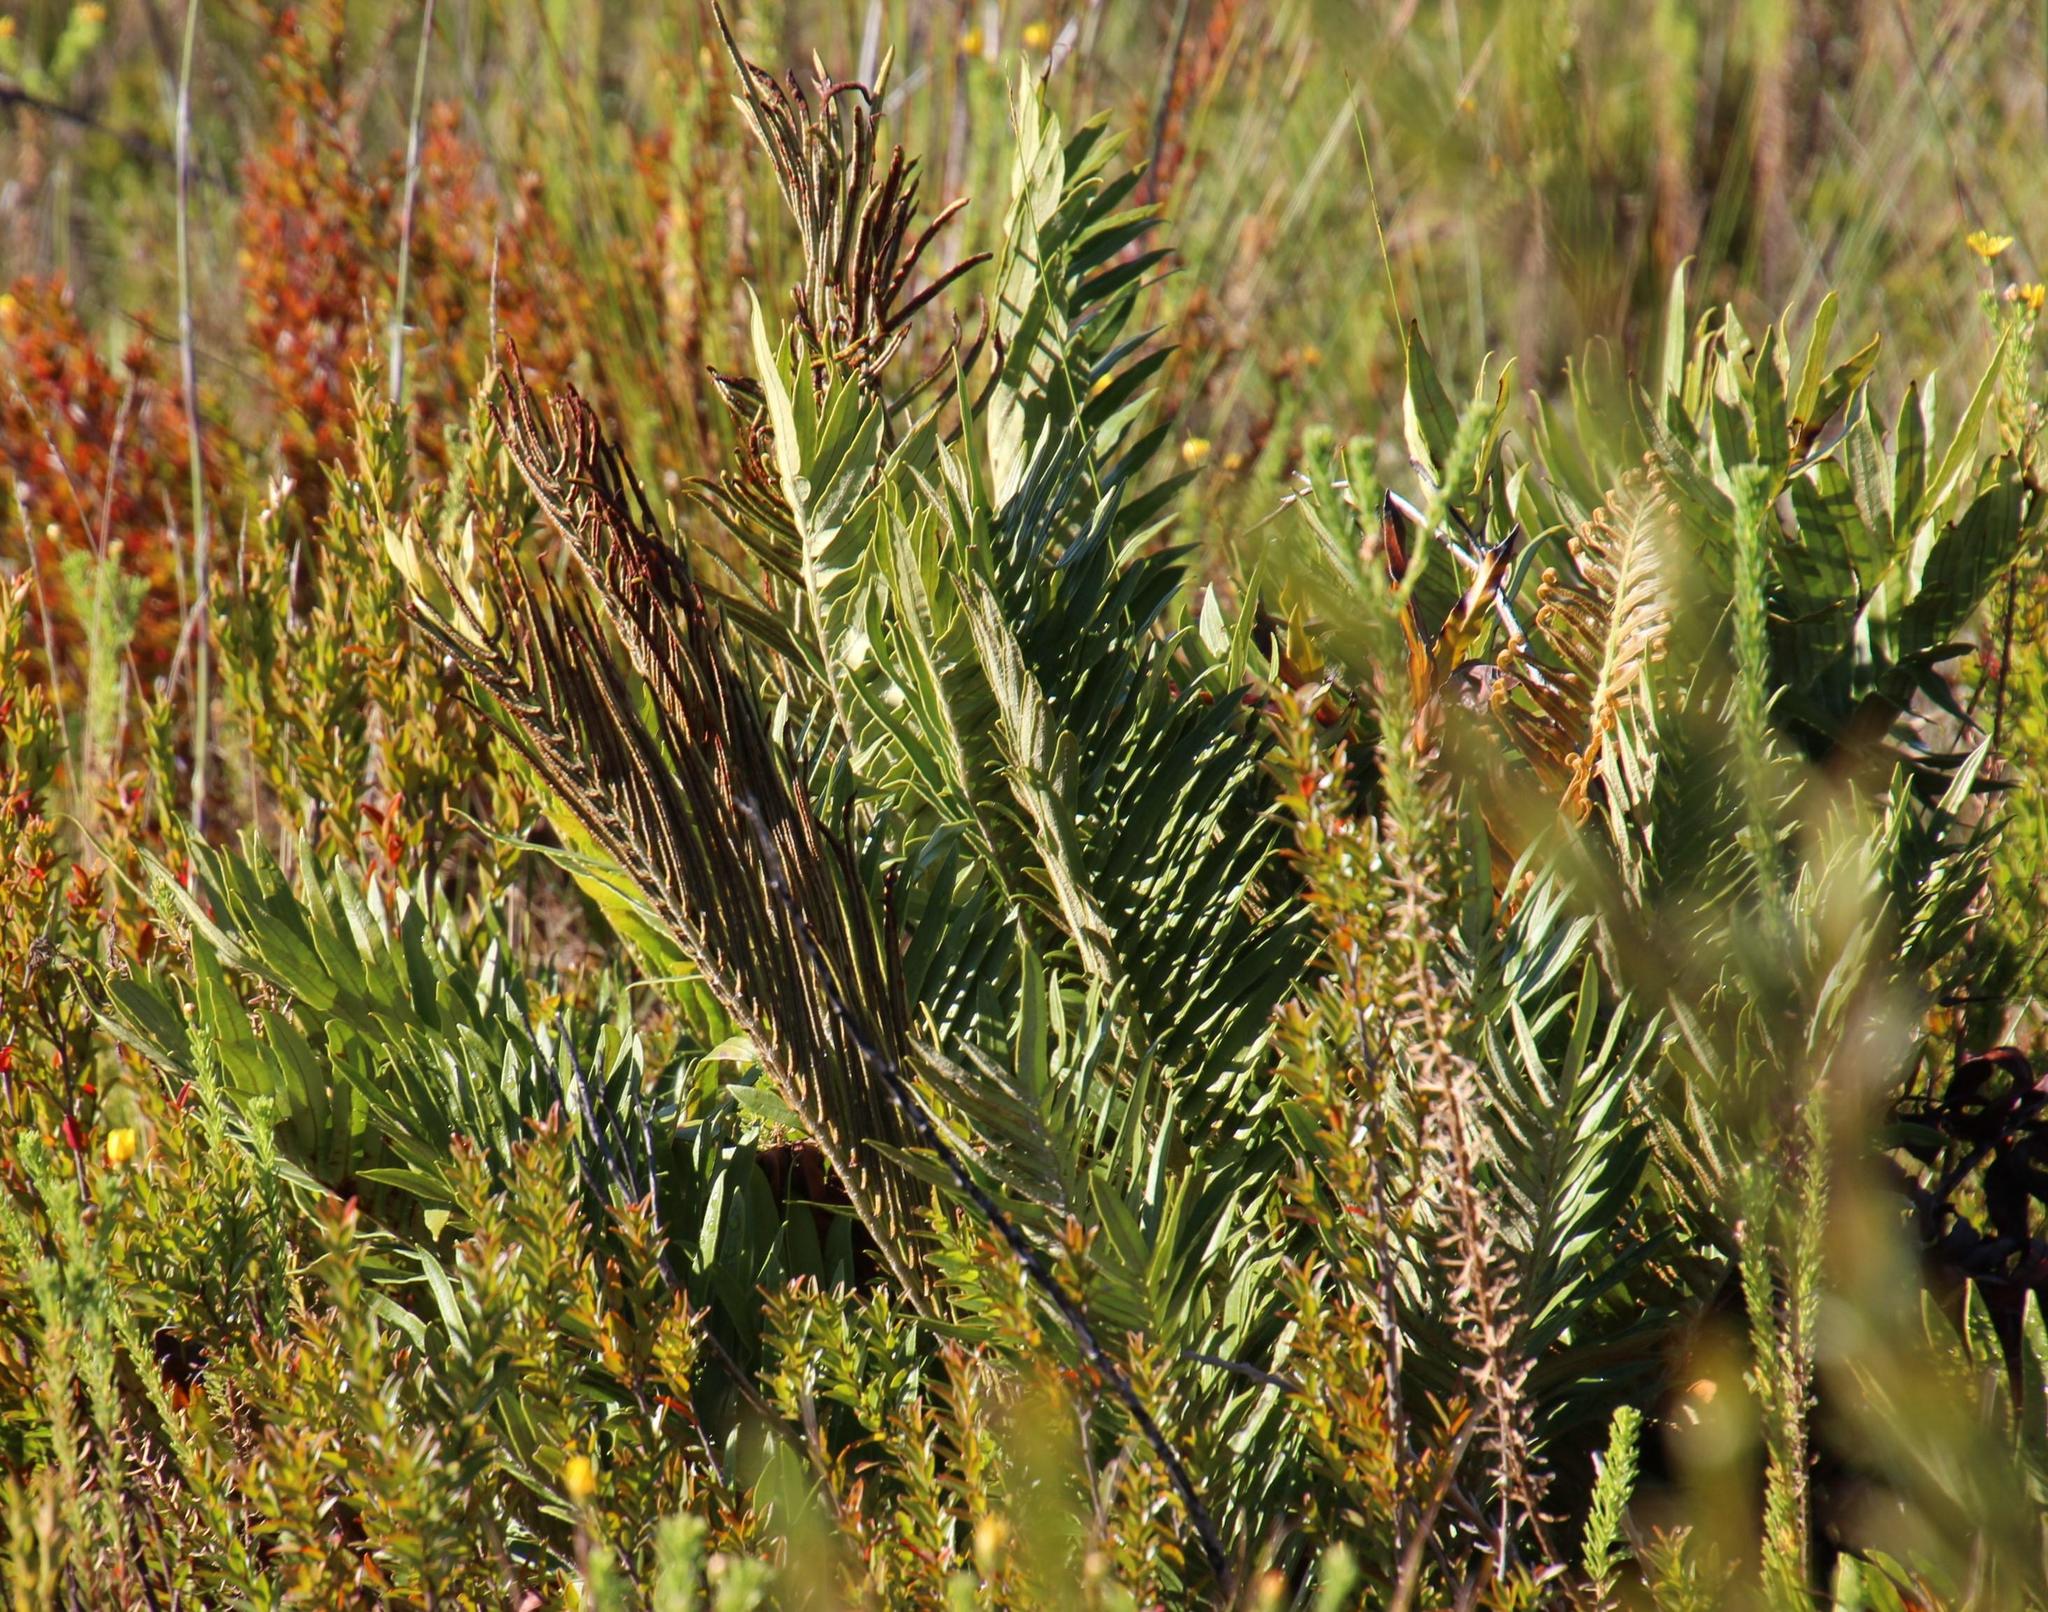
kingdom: Plantae
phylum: Tracheophyta
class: Polypodiopsida
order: Polypodiales
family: Blechnaceae
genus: Lomariocycas
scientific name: Lomariocycas tabularis
